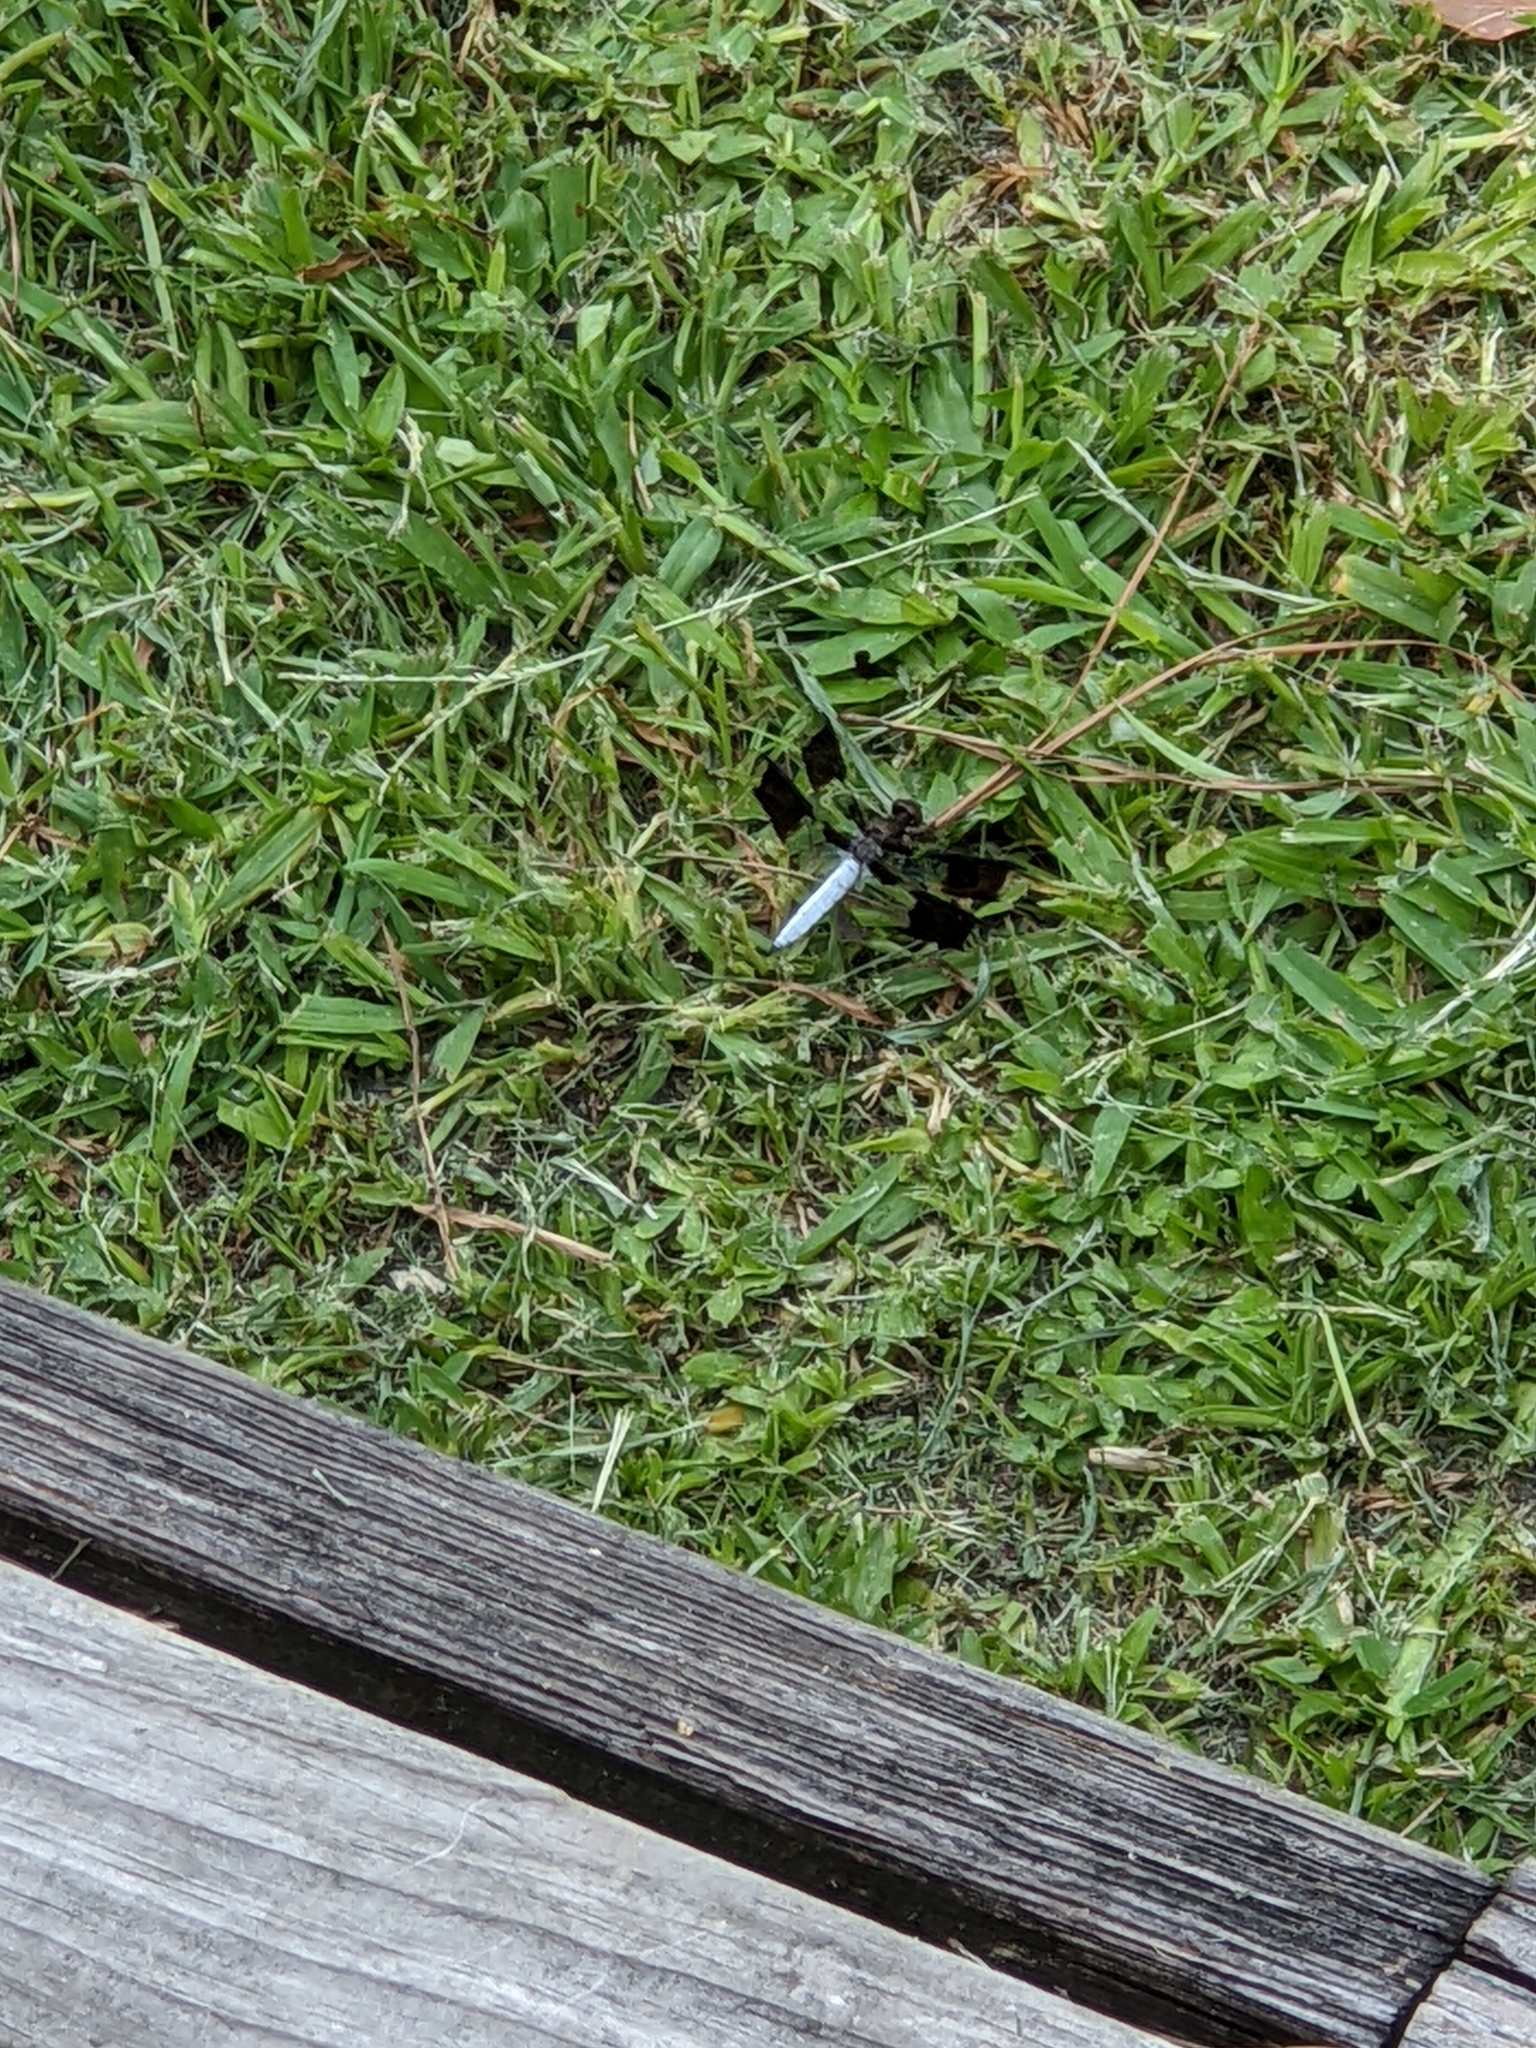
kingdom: Animalia
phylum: Arthropoda
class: Insecta
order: Odonata
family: Libellulidae
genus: Plathemis
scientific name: Plathemis lydia
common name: Common whitetail
